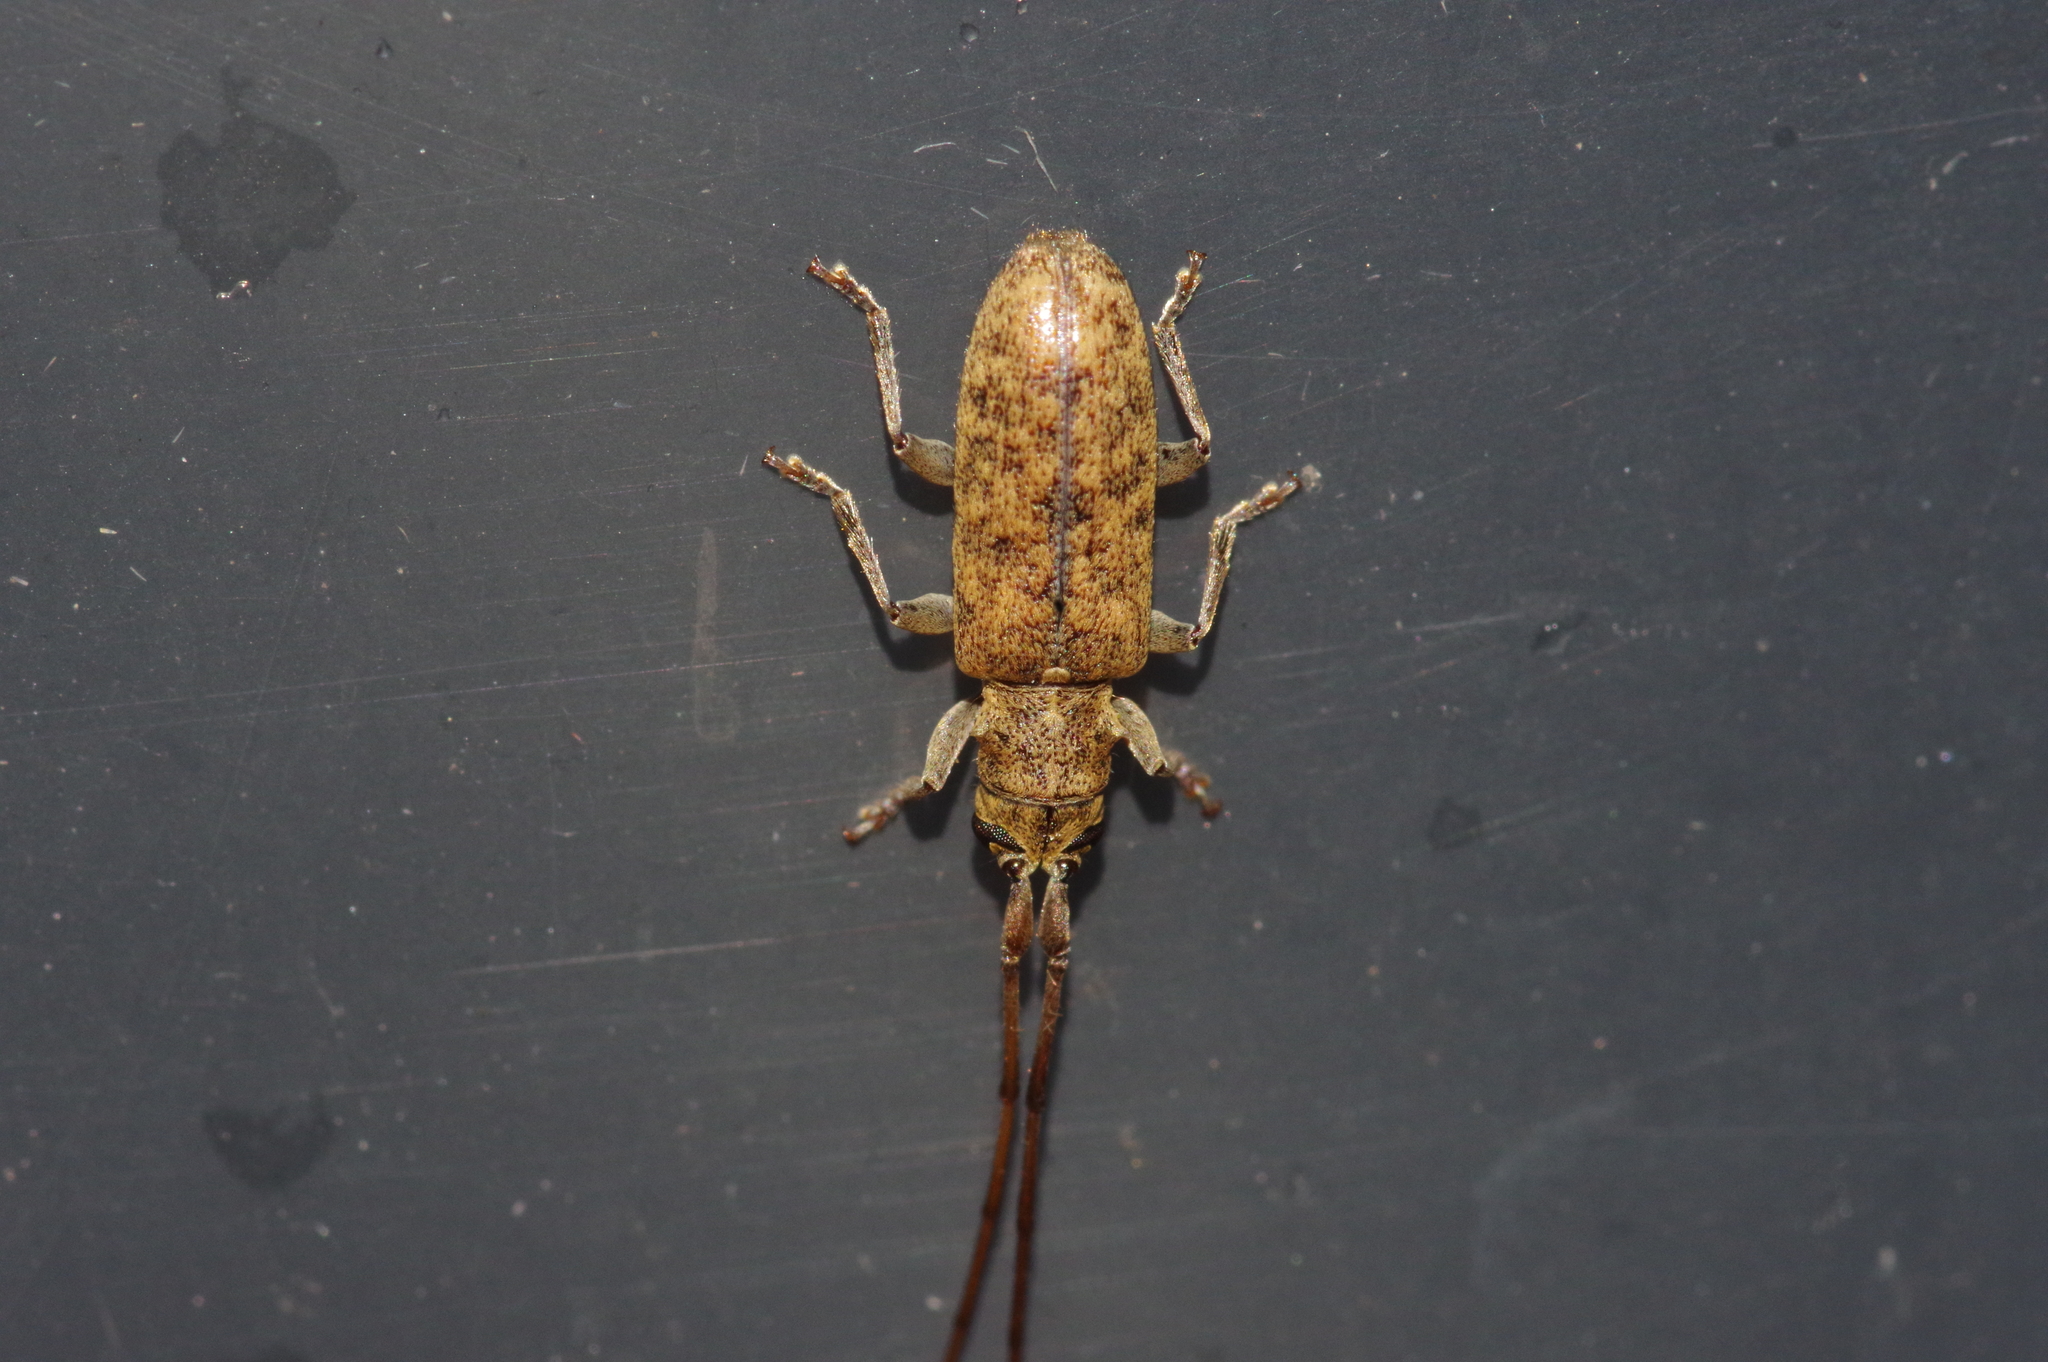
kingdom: Animalia
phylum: Arthropoda
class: Insecta
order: Coleoptera
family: Cerambycidae
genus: Xenolea
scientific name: Xenolea asiatica
